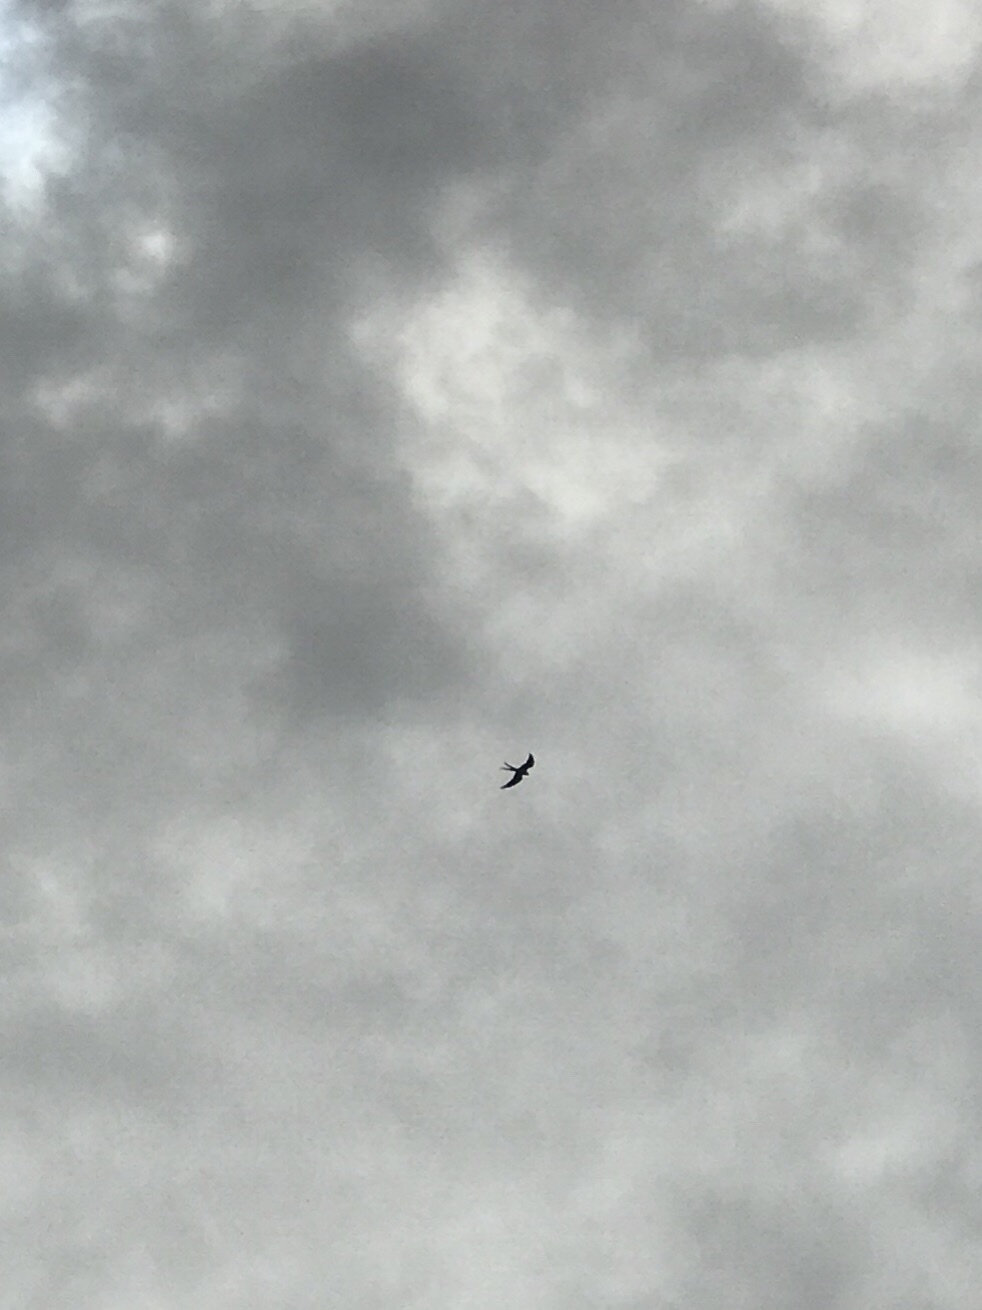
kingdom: Animalia
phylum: Chordata
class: Aves
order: Accipitriformes
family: Accipitridae
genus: Elanoides
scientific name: Elanoides forficatus
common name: Swallow-tailed kite
